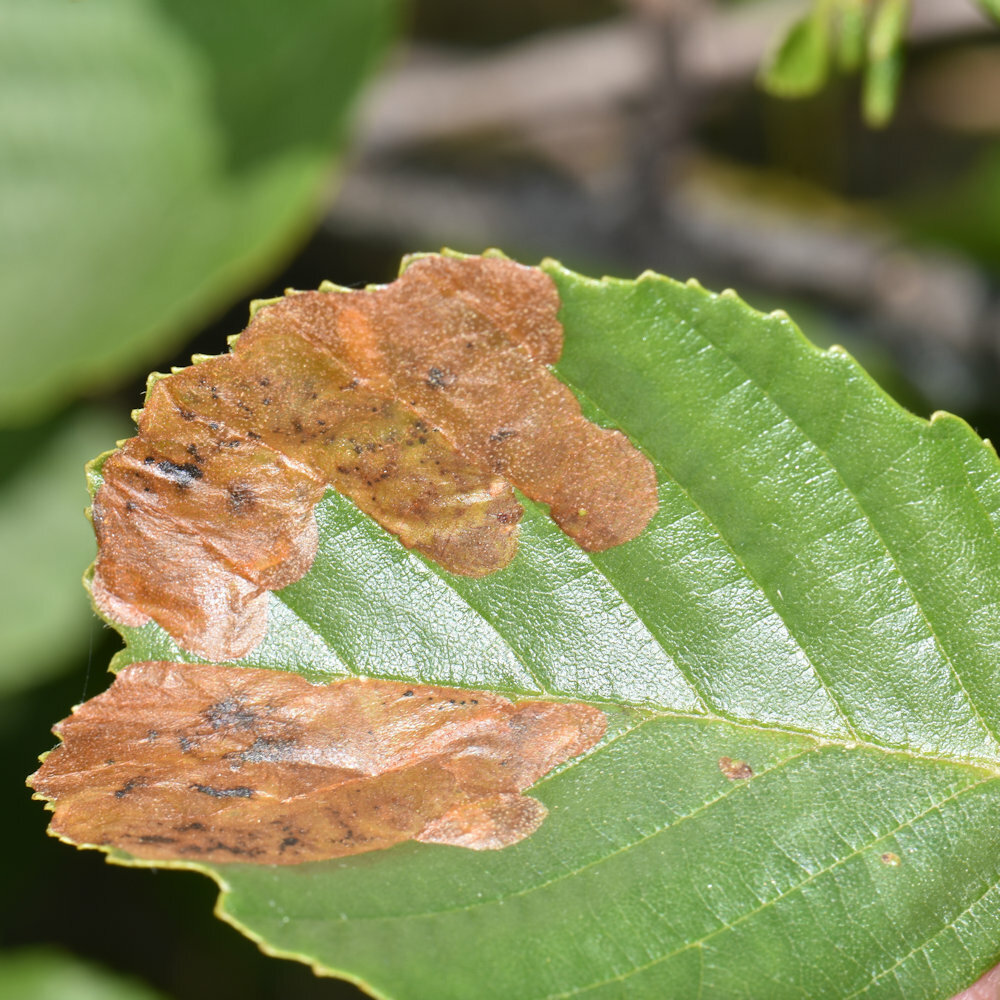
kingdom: Animalia
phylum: Arthropoda
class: Insecta
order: Hymenoptera
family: Tenthredinidae
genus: Fenusa
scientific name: Fenusa dohrnii
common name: European alder leafminer
